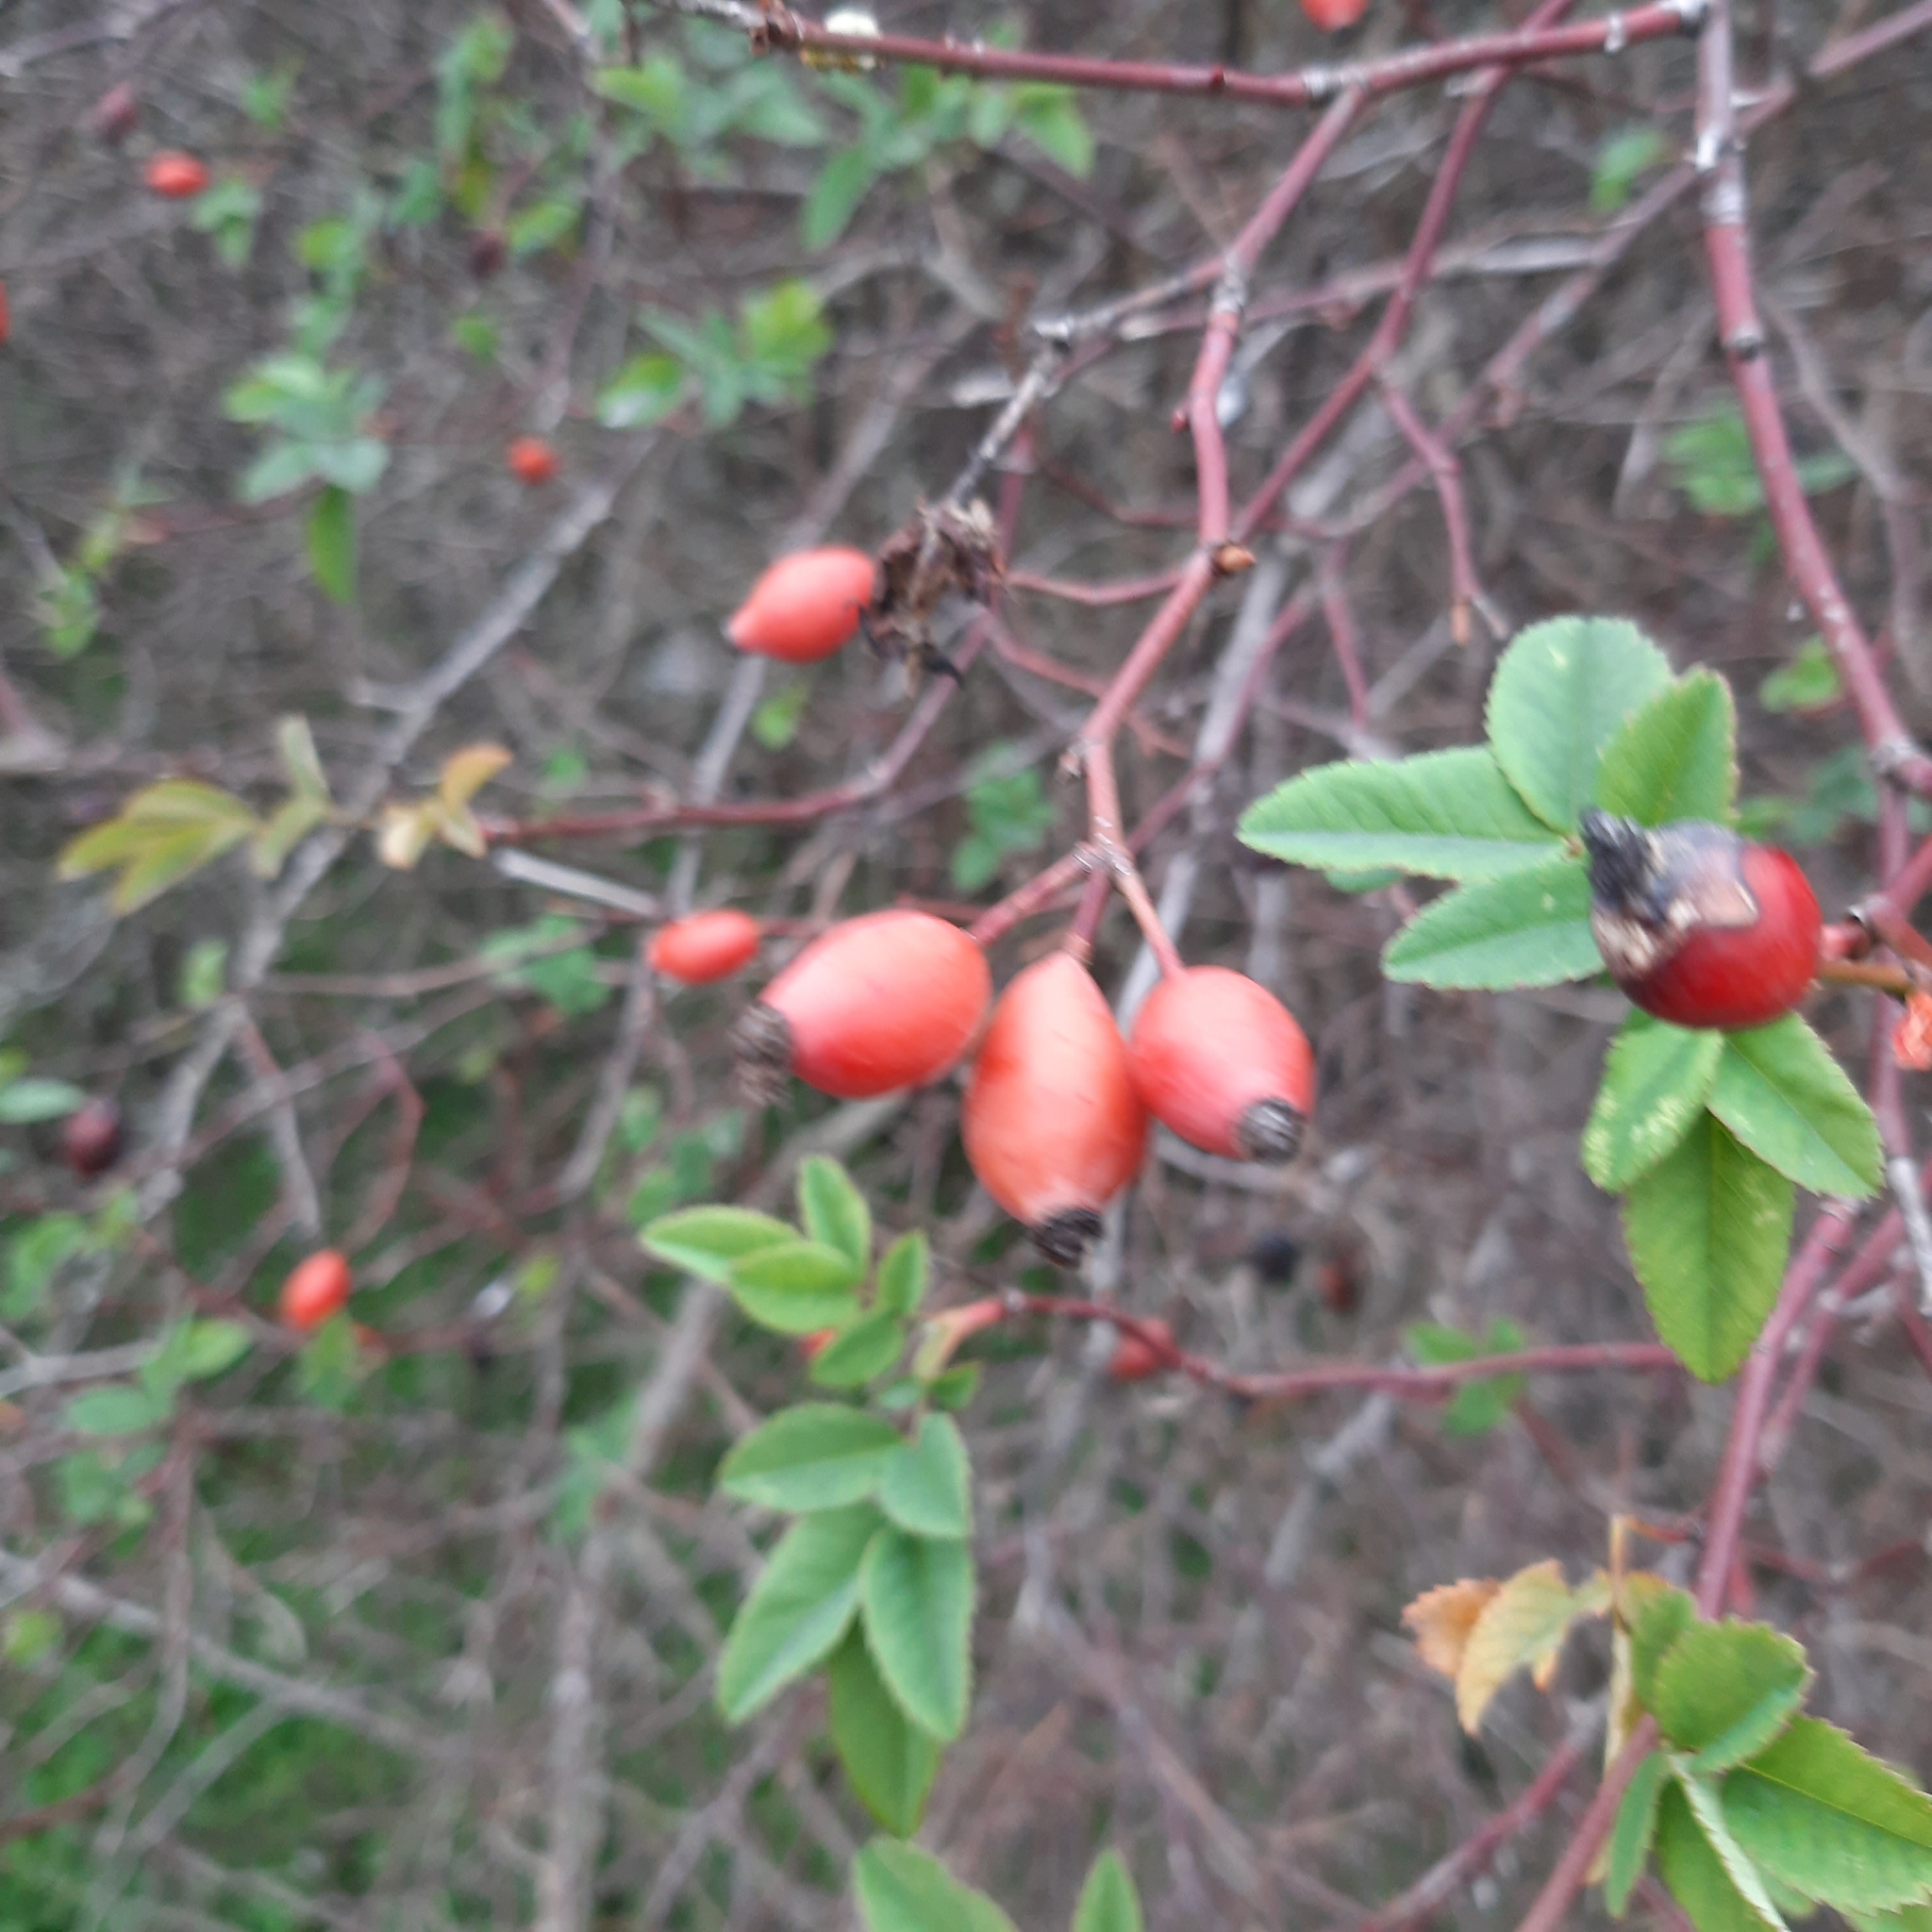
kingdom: Plantae
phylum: Tracheophyta
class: Magnoliopsida
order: Rosales
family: Rosaceae
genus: Rosa
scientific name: Rosa
